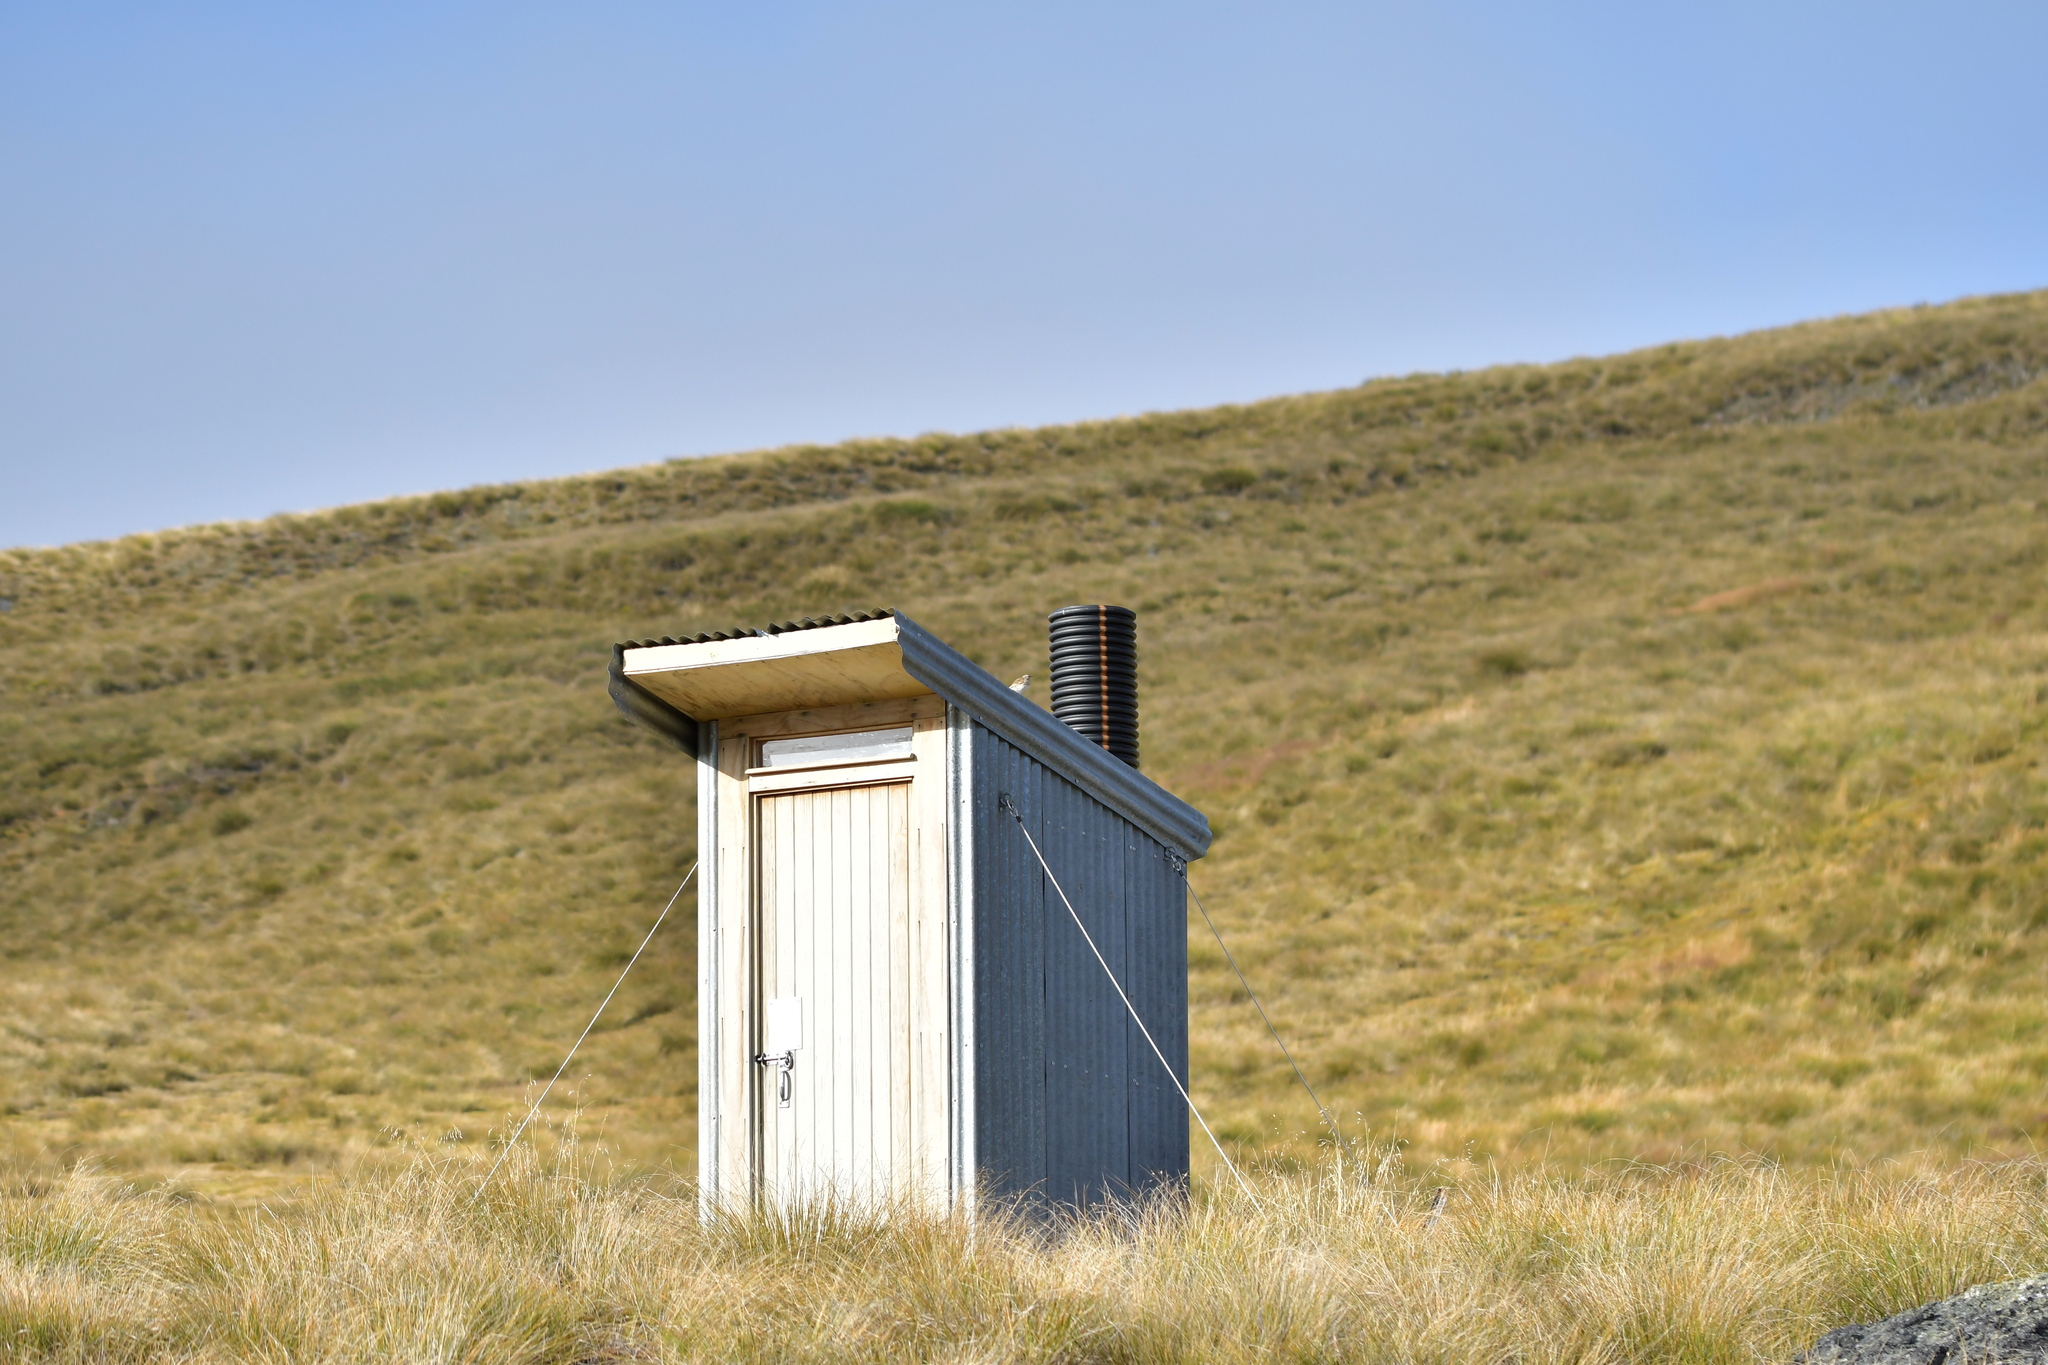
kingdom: Animalia
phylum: Chordata
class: Aves
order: Passeriformes
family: Motacillidae
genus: Anthus
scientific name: Anthus novaeseelandiae
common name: New zealand pipit
